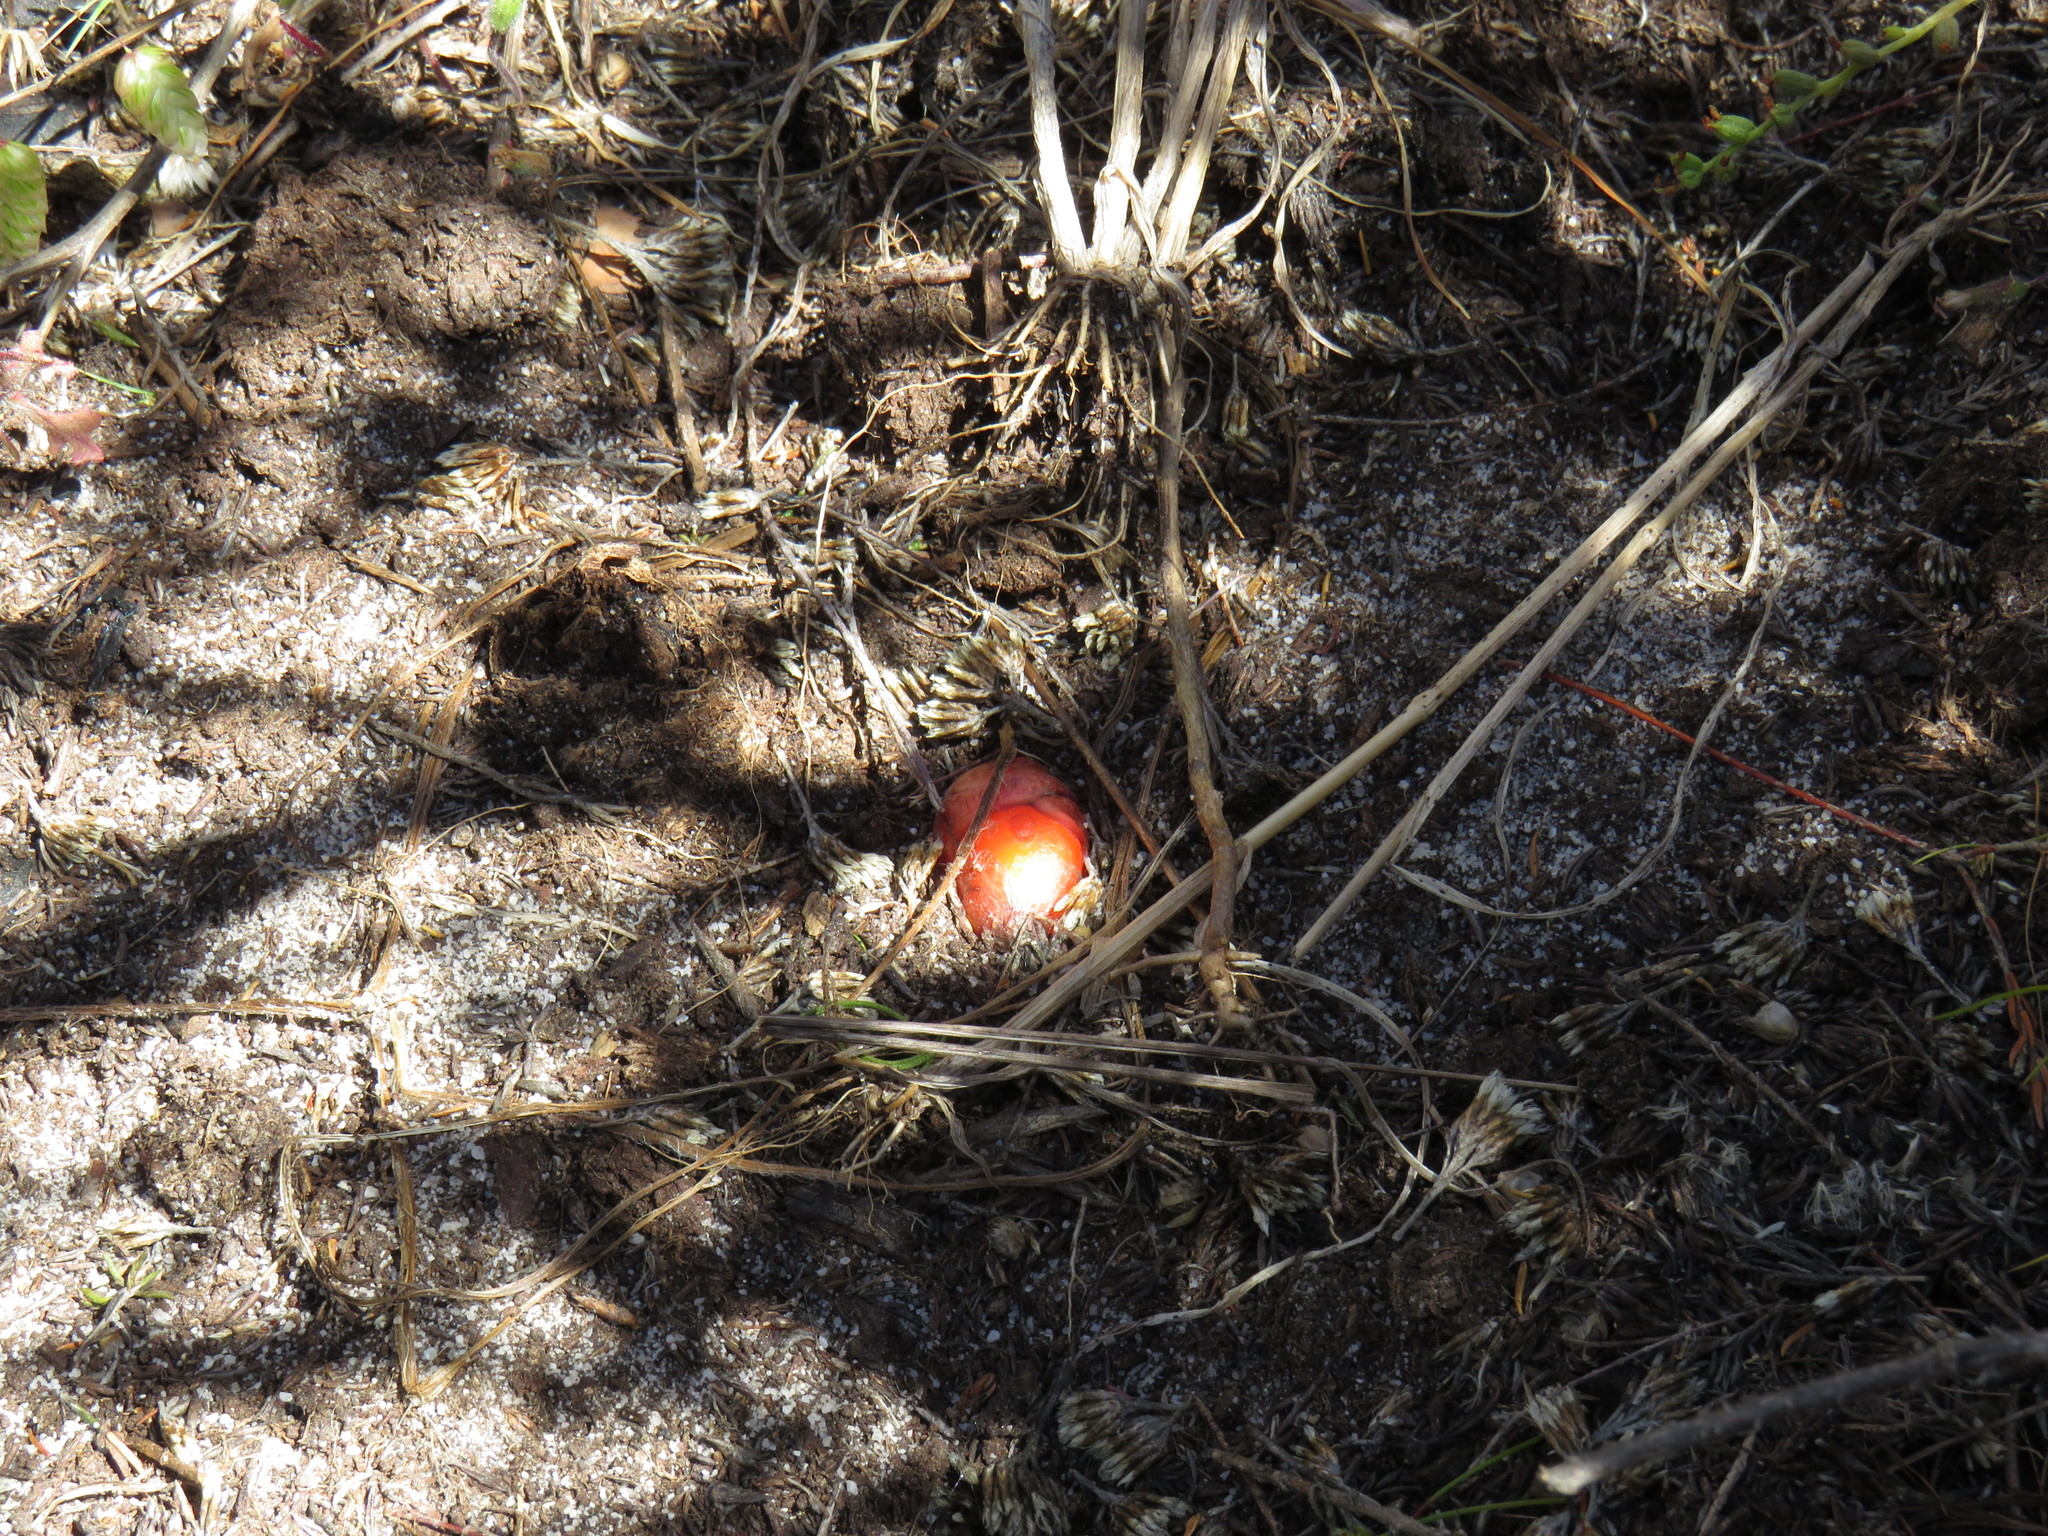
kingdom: Plantae
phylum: Tracheophyta
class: Liliopsida
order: Commelinales
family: Haemodoraceae
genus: Wachendorfia
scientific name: Wachendorfia paniculata
